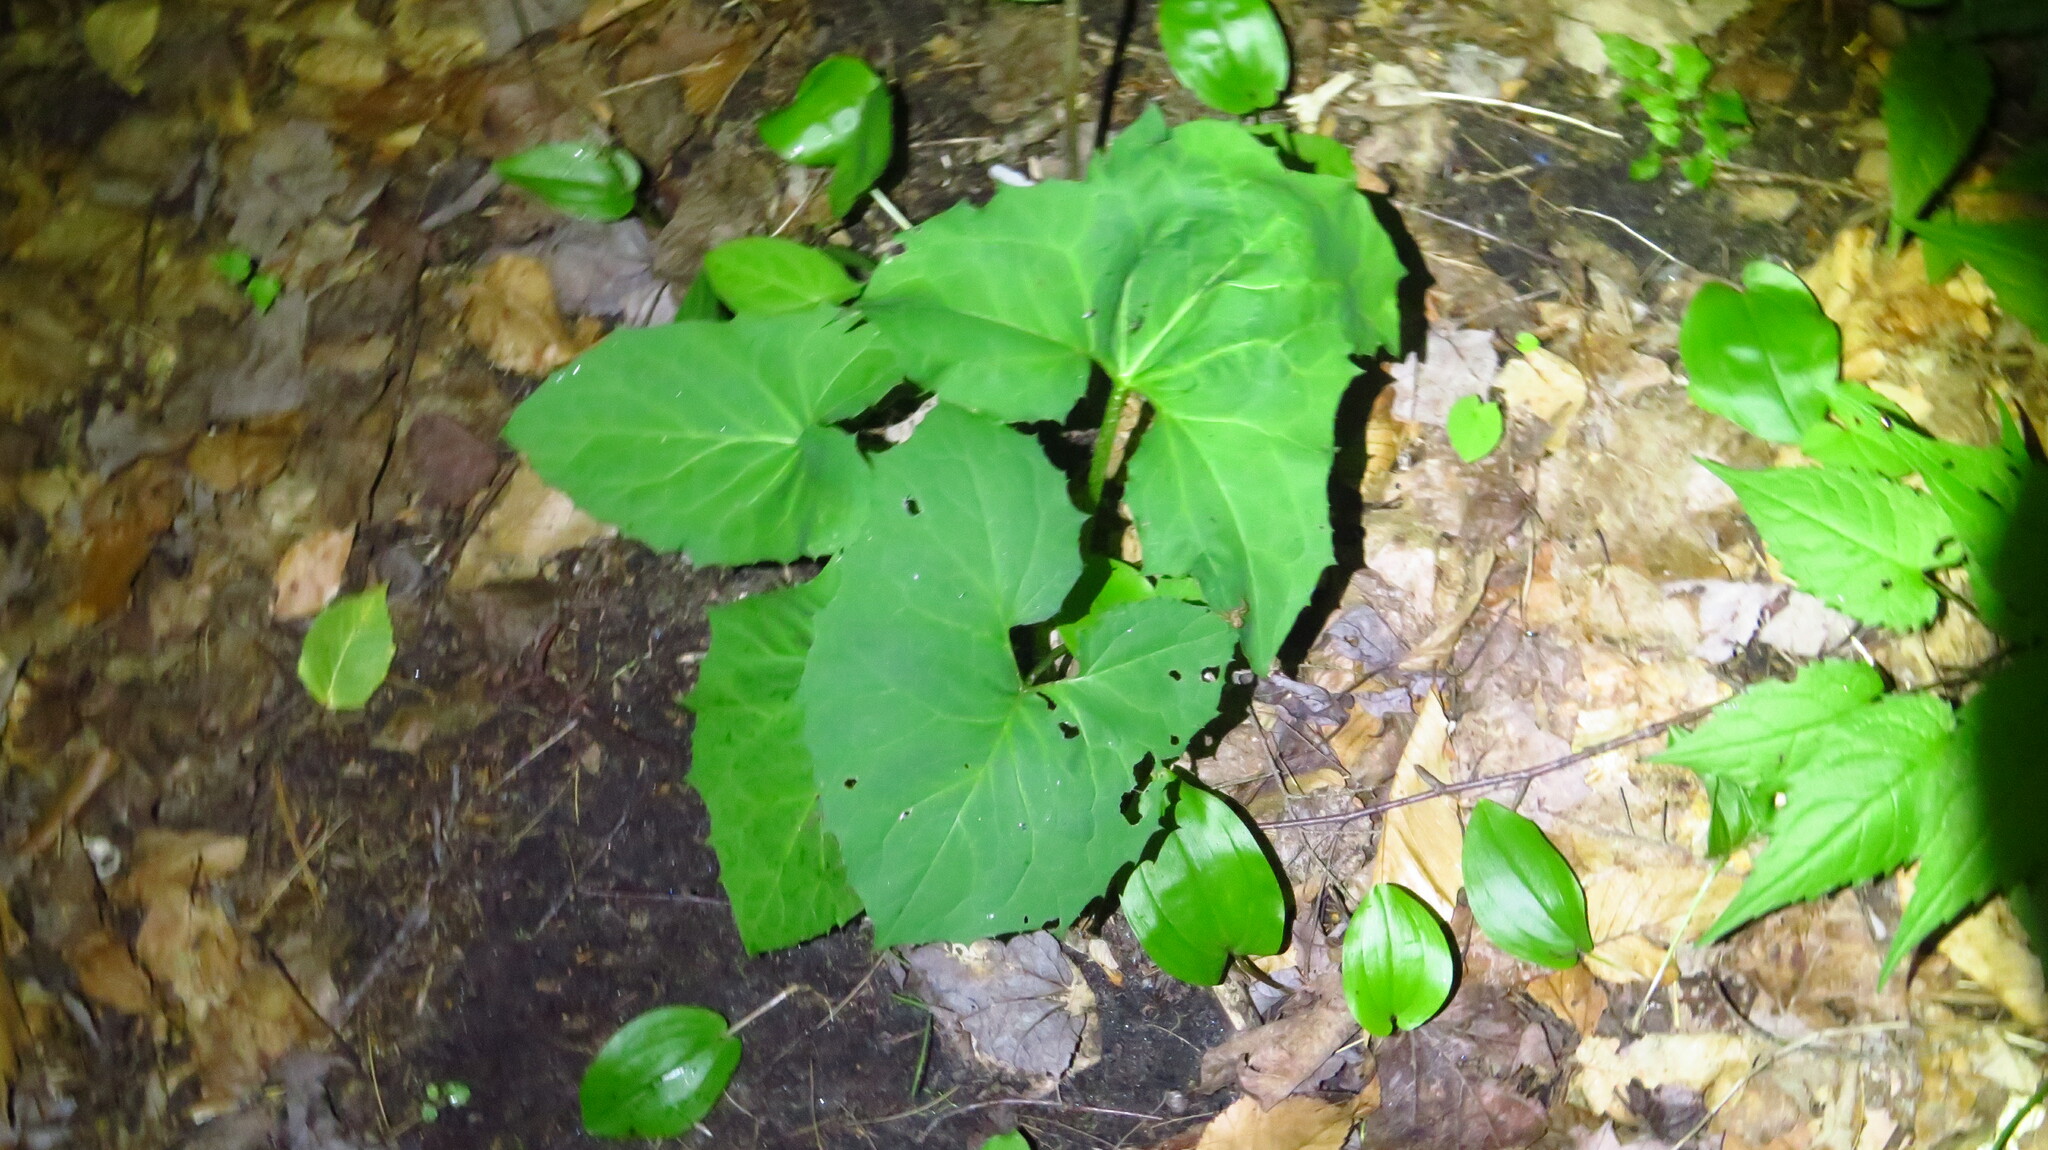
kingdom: Plantae
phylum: Tracheophyta
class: Magnoliopsida
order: Asterales
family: Asteraceae
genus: Nabalus
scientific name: Nabalus altissima
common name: Tall rattlesnakeroot
